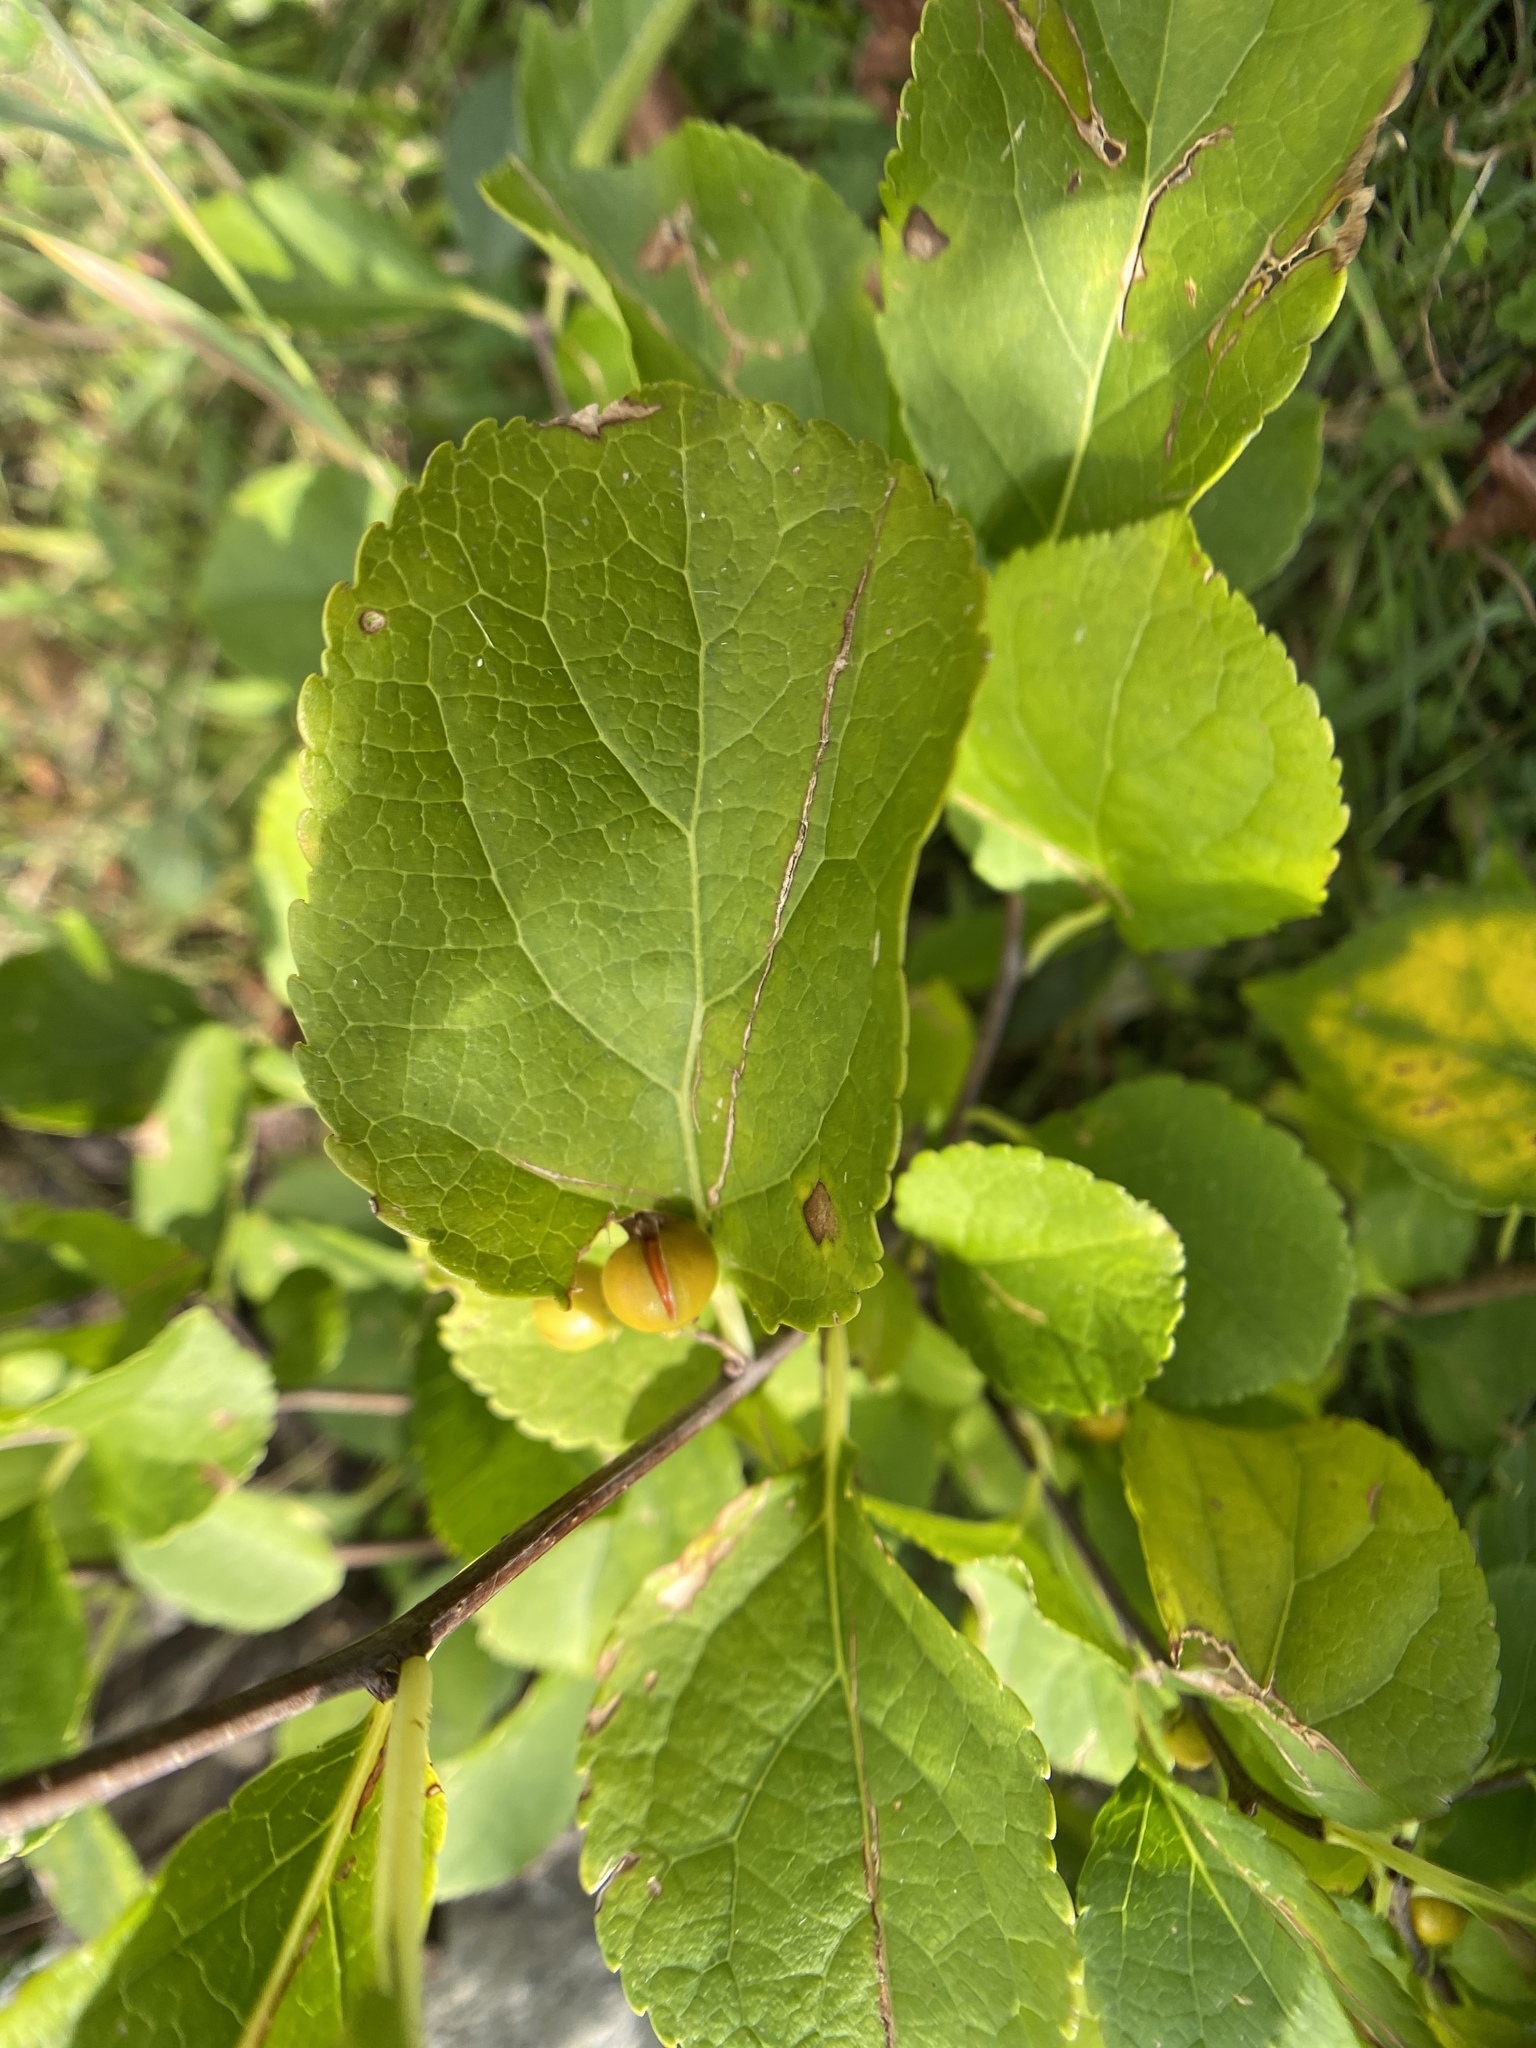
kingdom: Plantae
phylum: Tracheophyta
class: Magnoliopsida
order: Celastrales
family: Celastraceae
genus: Celastrus
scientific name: Celastrus orbiculatus
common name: Oriental bittersweet
